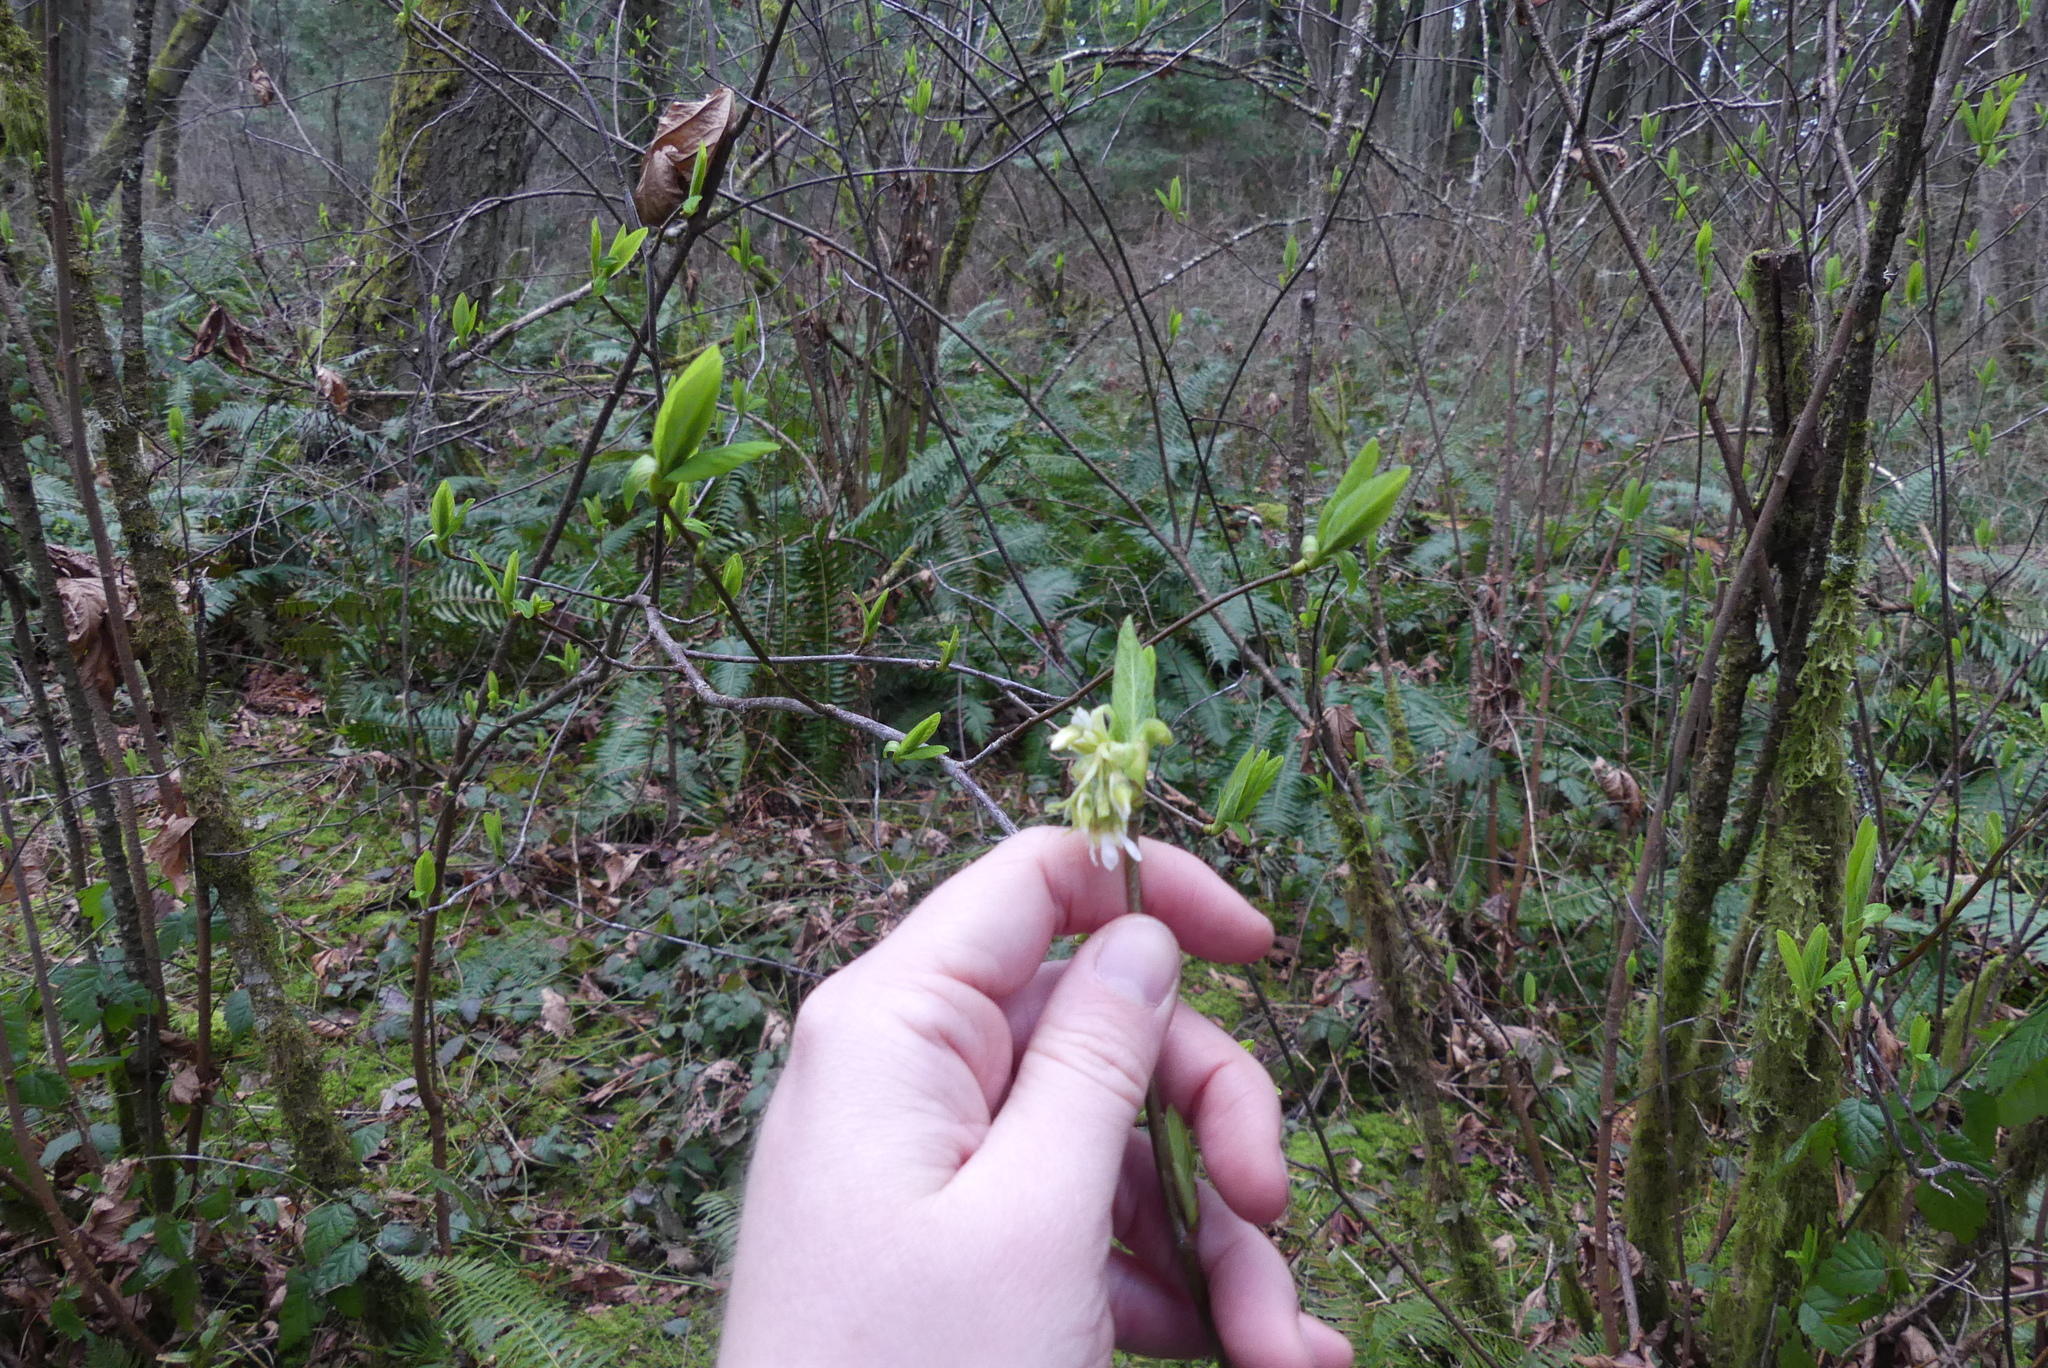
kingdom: Plantae
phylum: Tracheophyta
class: Magnoliopsida
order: Rosales
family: Rosaceae
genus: Oemleria
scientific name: Oemleria cerasiformis
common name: Osoberry
